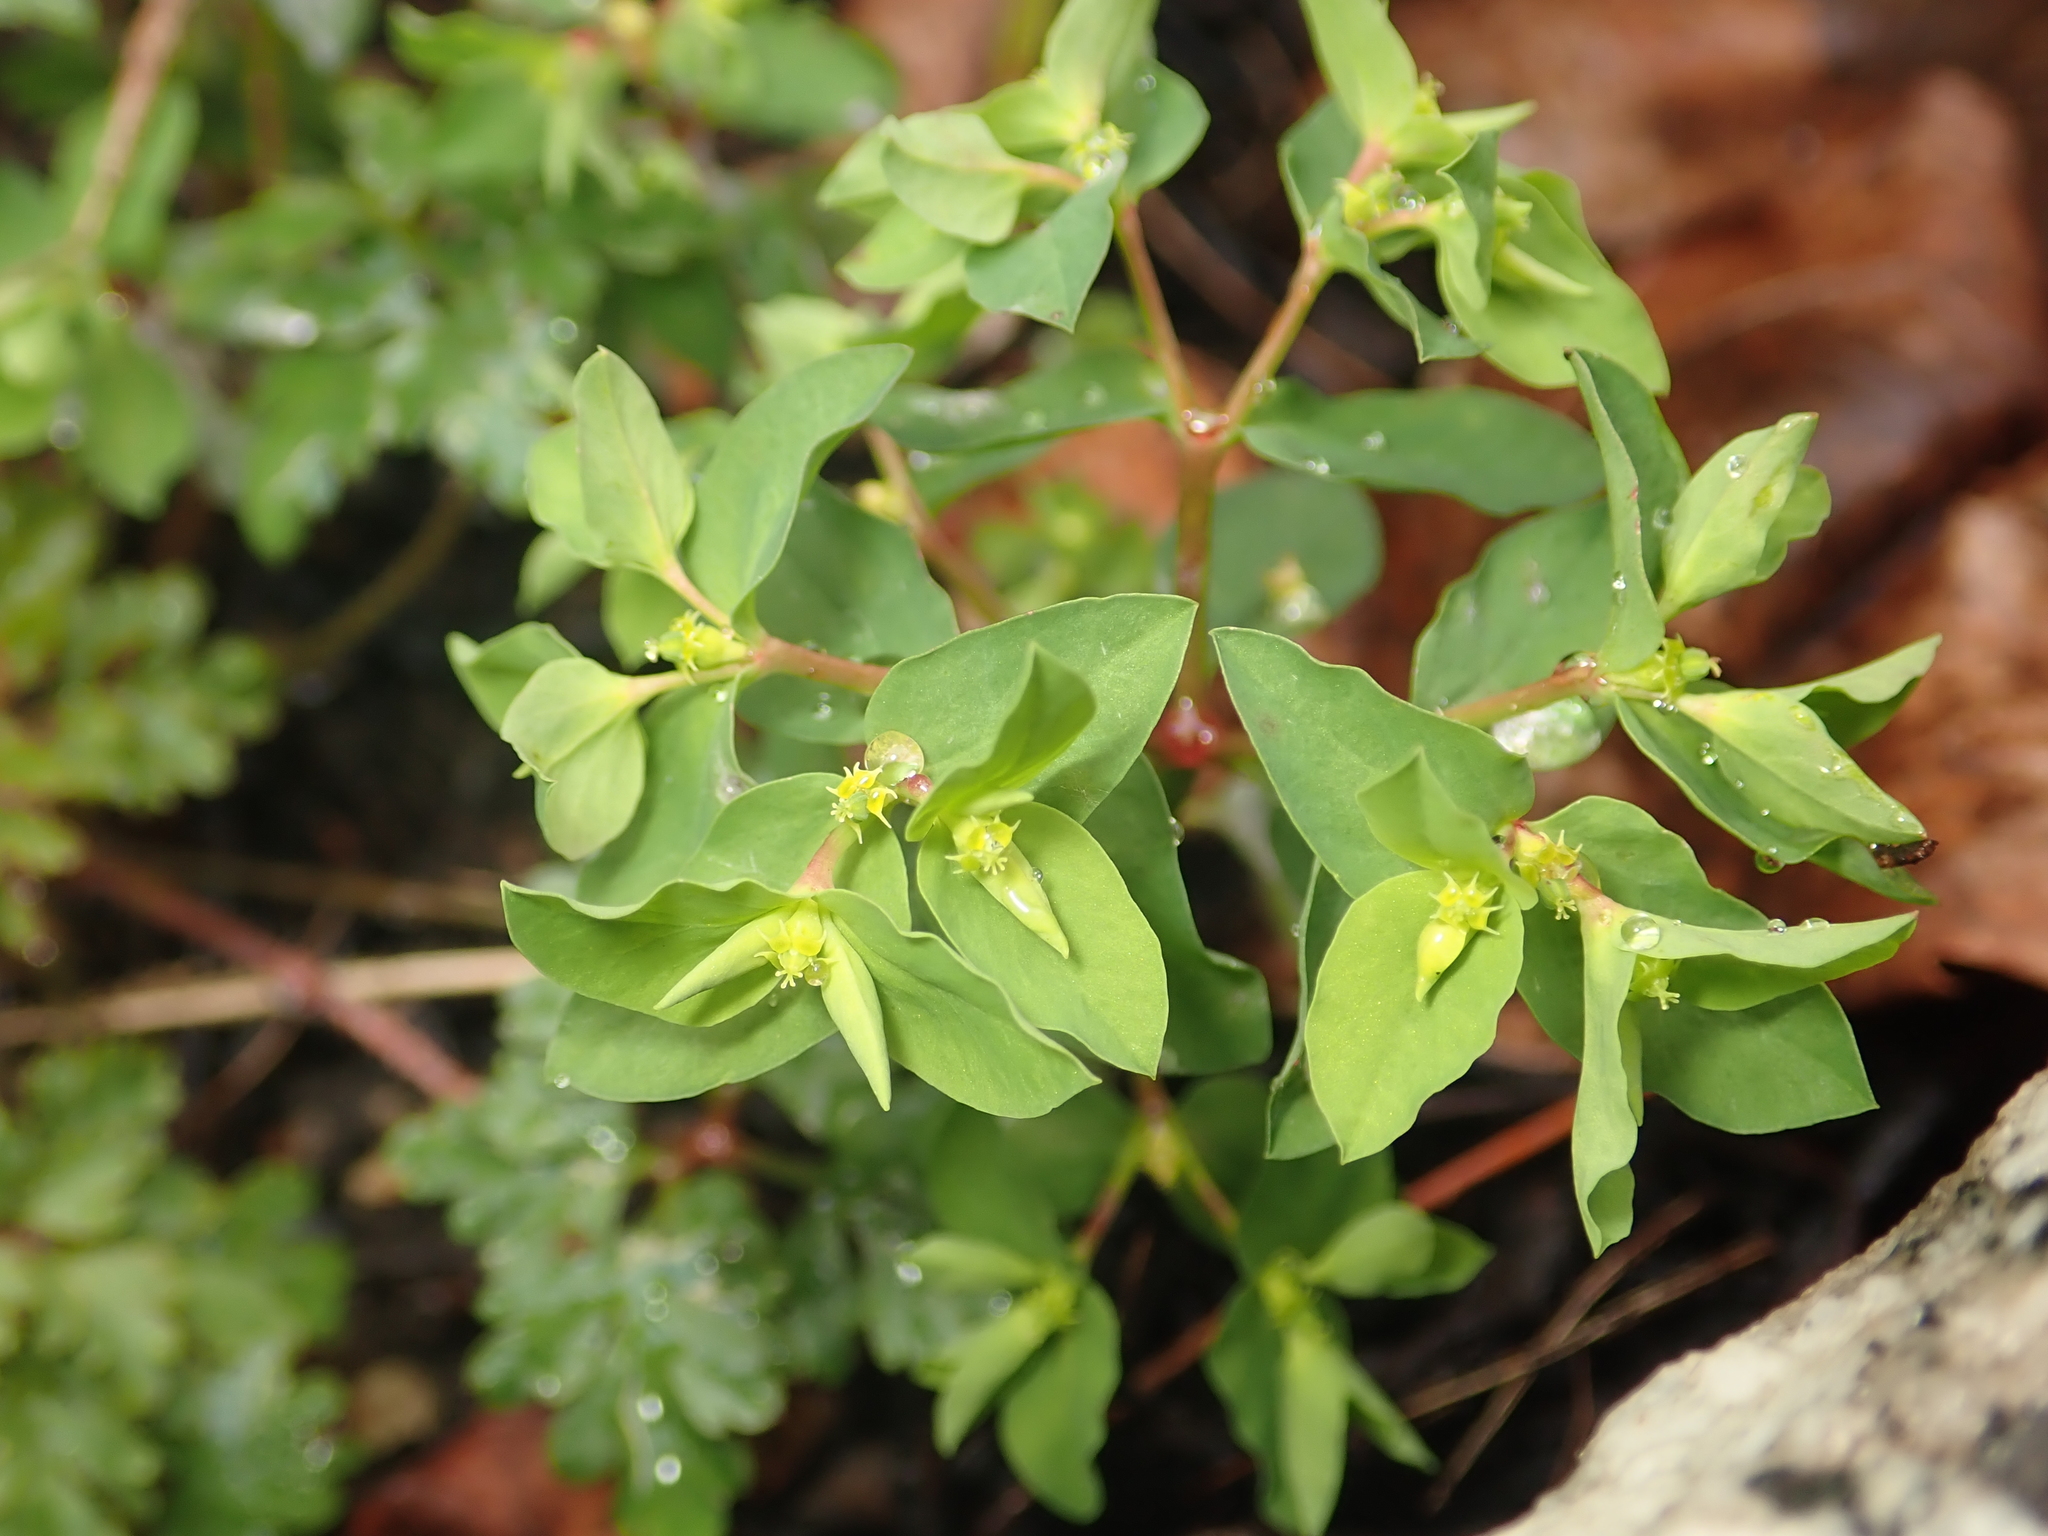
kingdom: Plantae
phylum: Tracheophyta
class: Magnoliopsida
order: Malpighiales
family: Euphorbiaceae
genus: Euphorbia
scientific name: Euphorbia peplus
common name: Petty spurge
